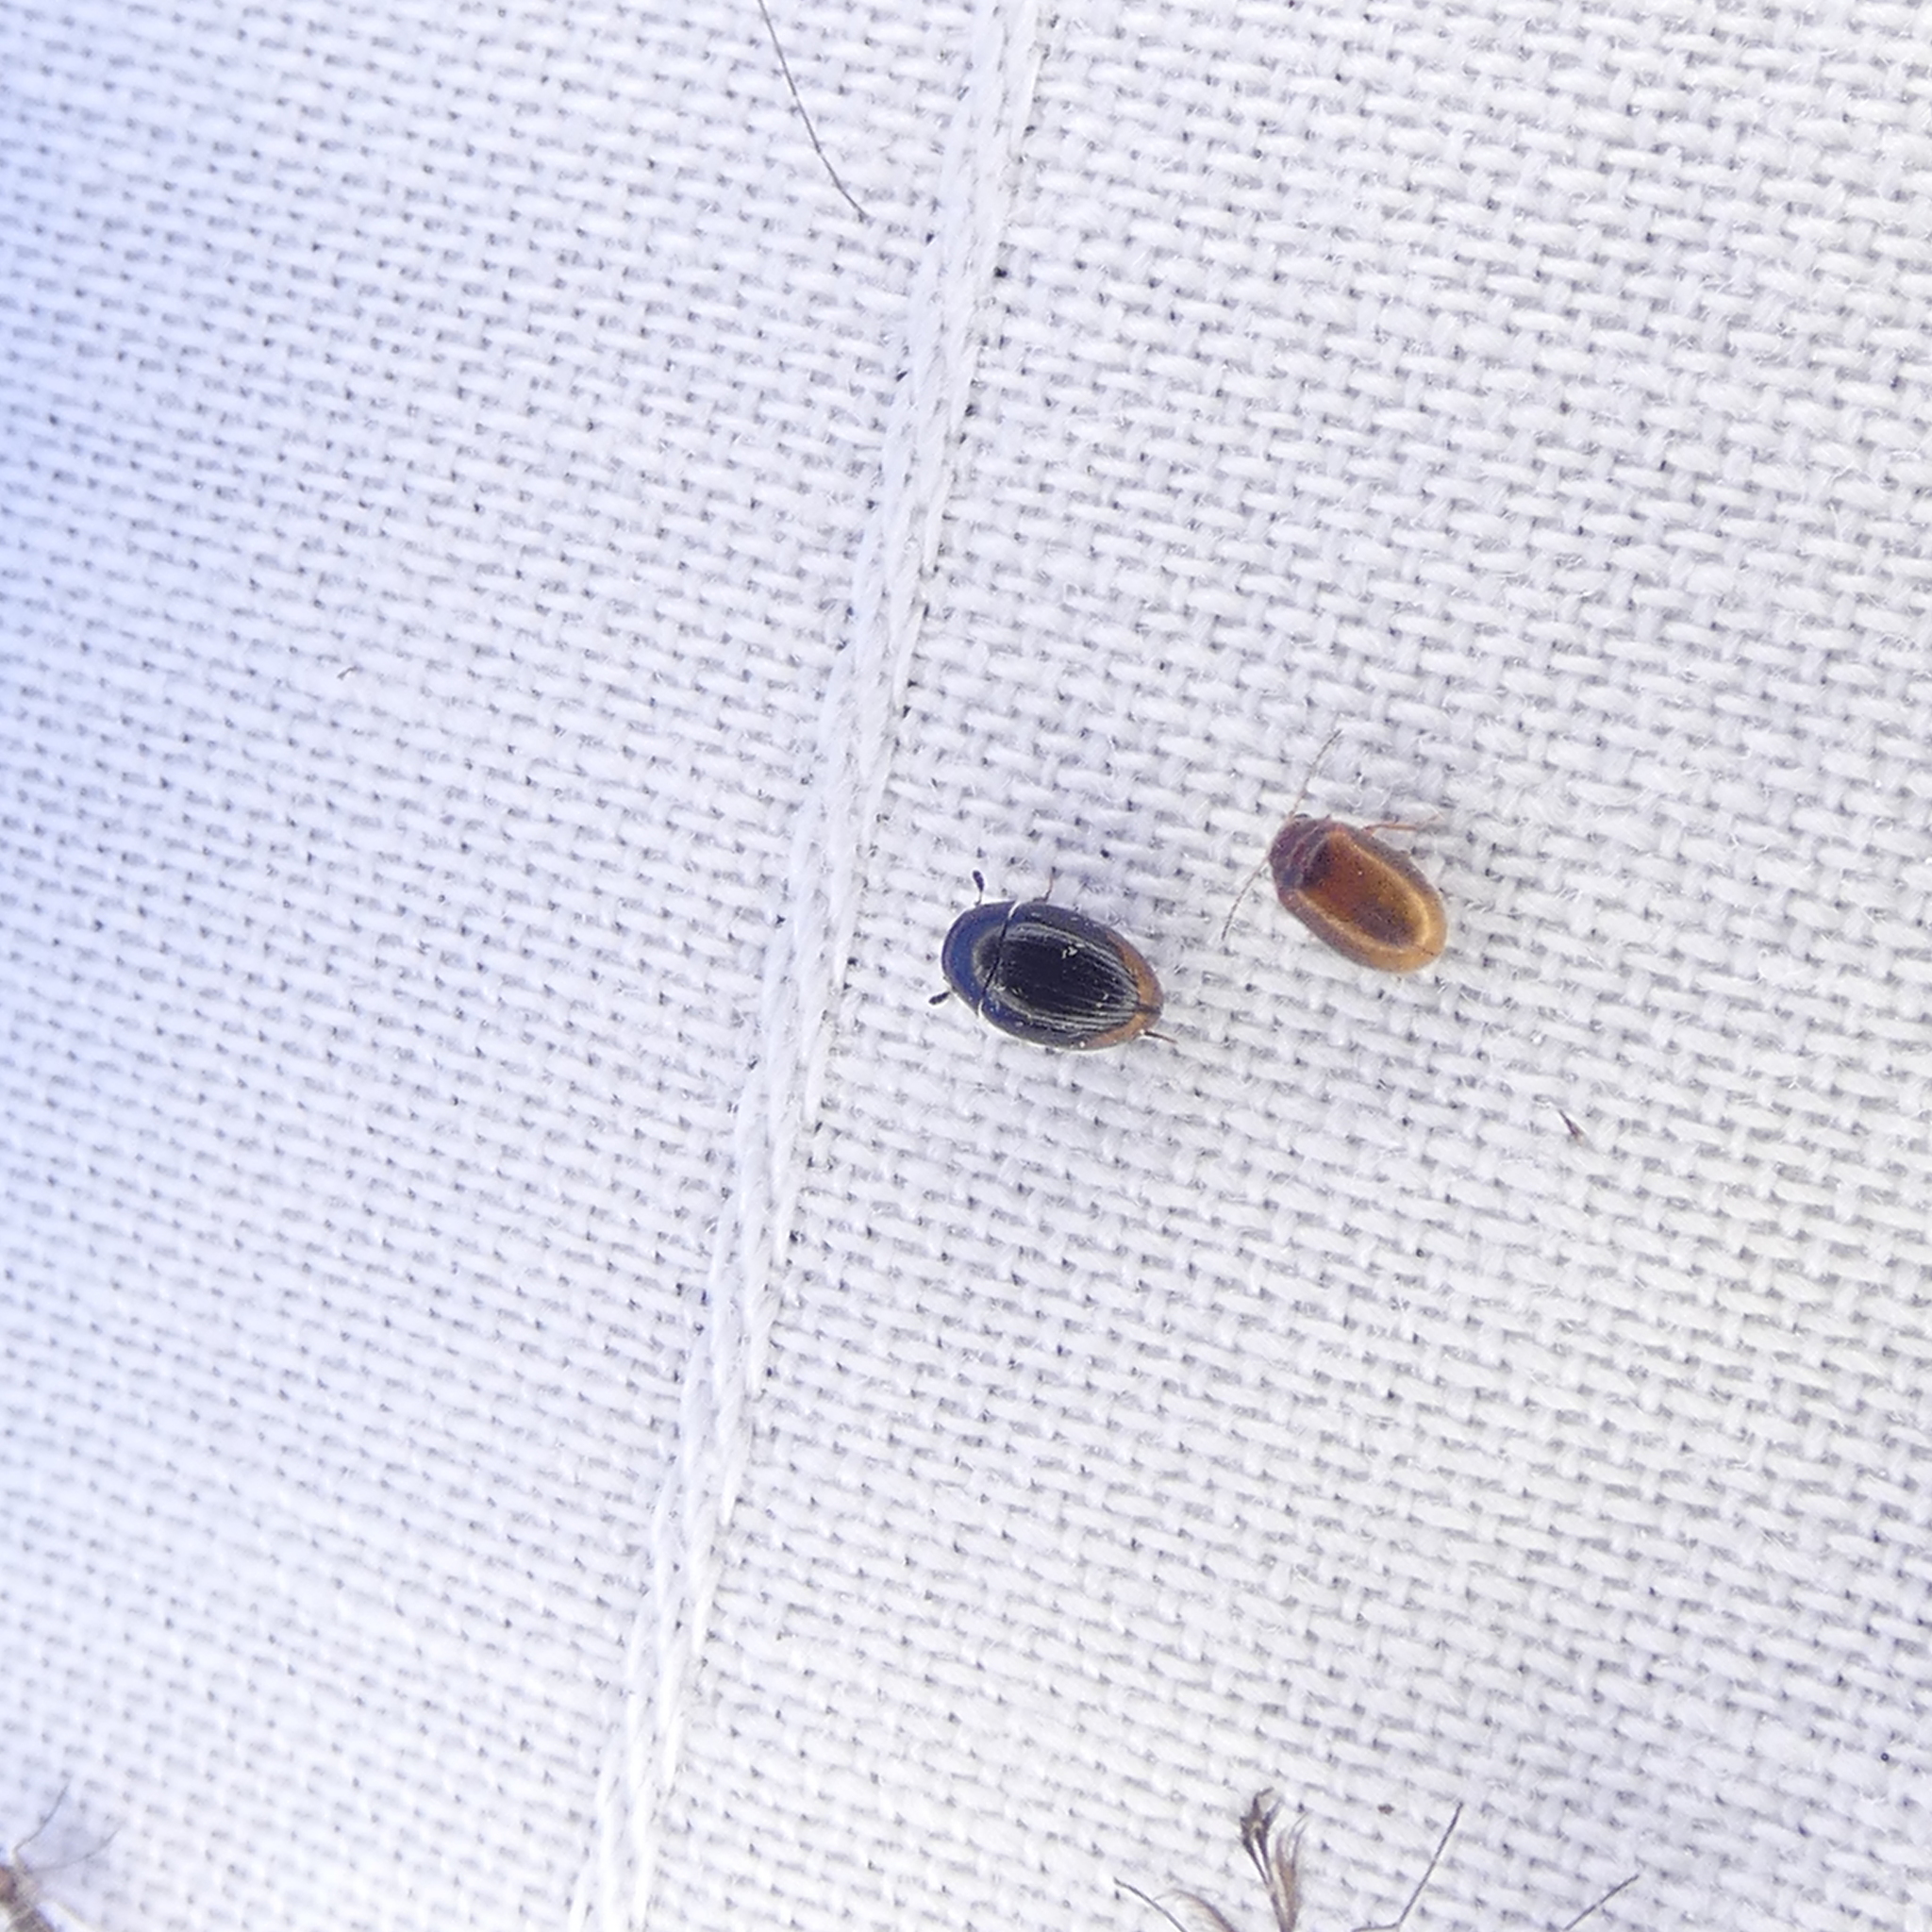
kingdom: Animalia
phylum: Arthropoda
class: Insecta
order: Coleoptera
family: Hydrophilidae
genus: Cercyon
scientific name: Cercyon praetextatus
